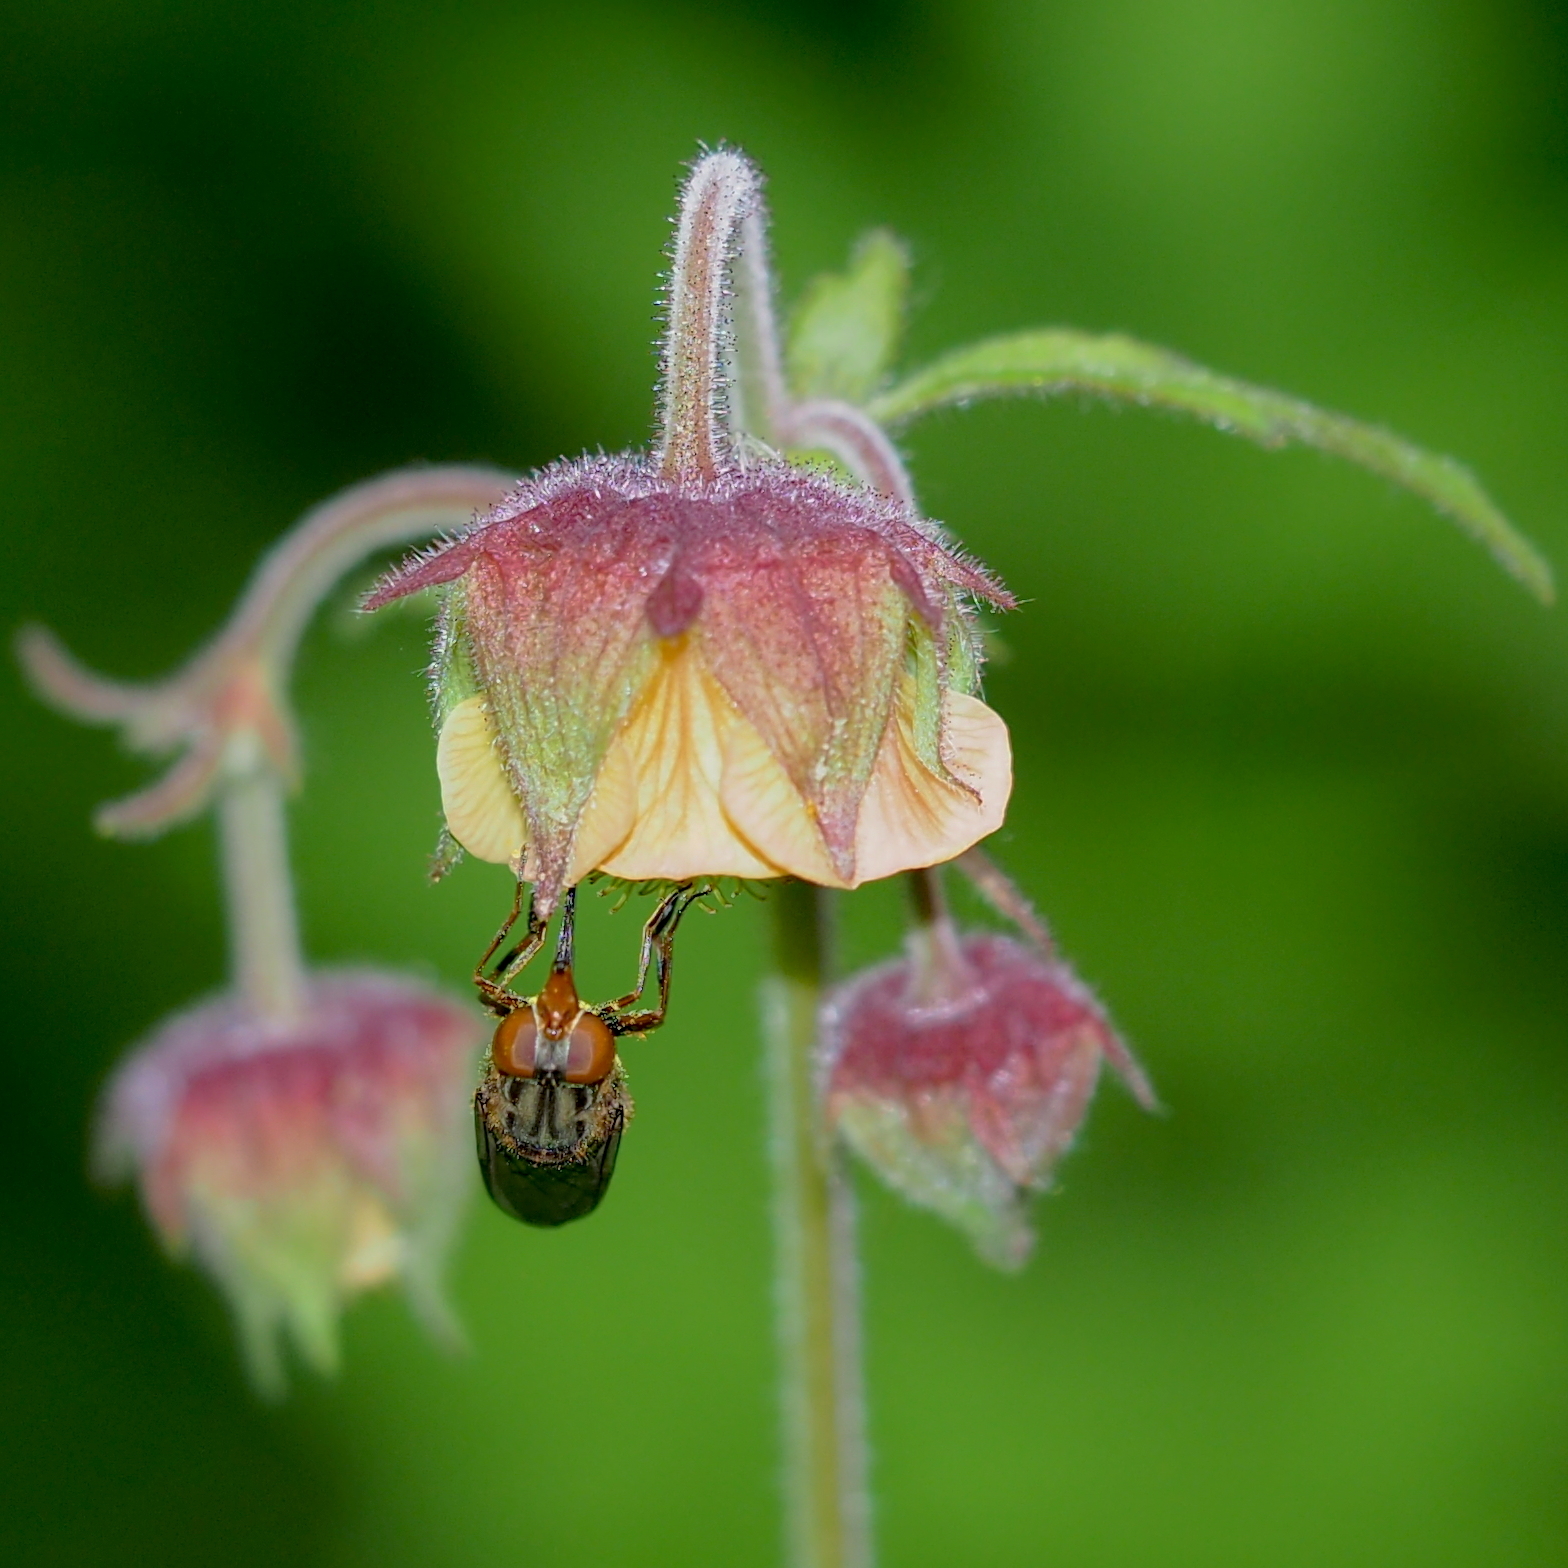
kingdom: Plantae
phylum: Tracheophyta
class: Magnoliopsida
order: Rosales
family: Rosaceae
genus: Geum
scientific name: Geum rivale
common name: Water avens
